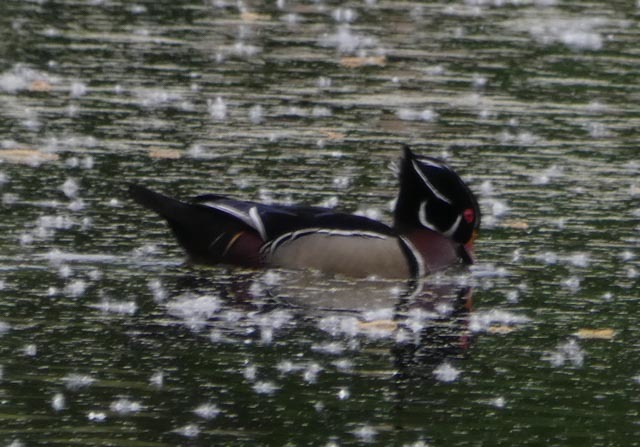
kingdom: Animalia
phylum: Chordata
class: Aves
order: Anseriformes
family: Anatidae
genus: Aix
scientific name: Aix sponsa
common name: Wood duck
